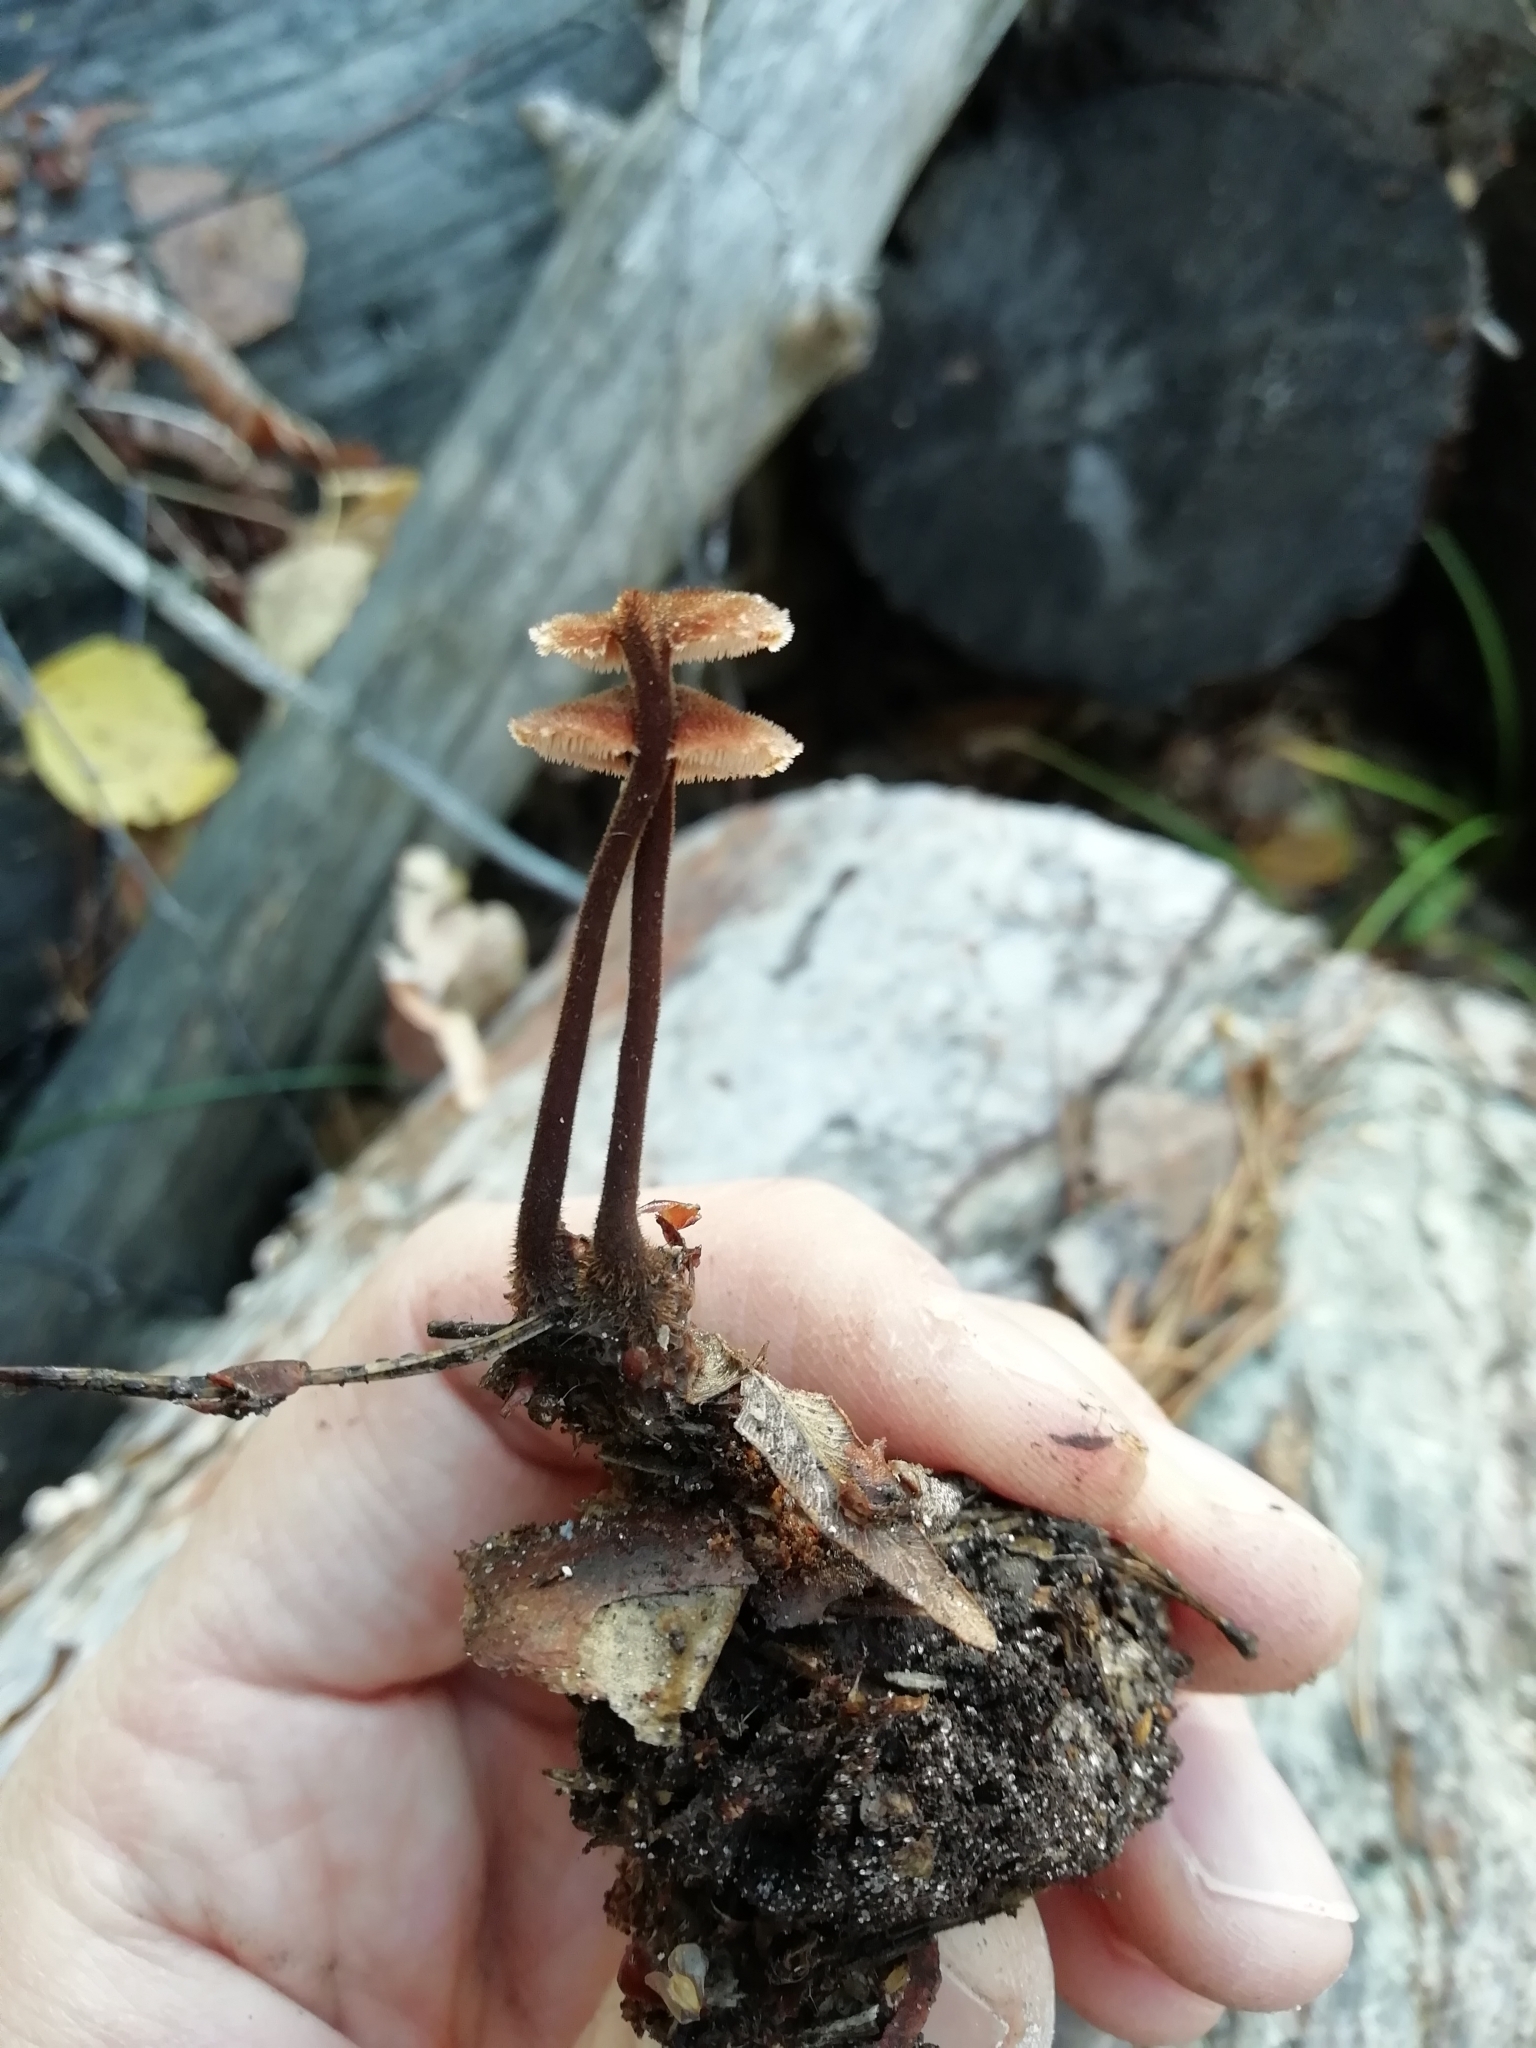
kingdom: Fungi
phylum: Basidiomycota
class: Agaricomycetes
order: Russulales
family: Auriscalpiaceae
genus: Auriscalpium
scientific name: Auriscalpium vulgare
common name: Earpick fungus
